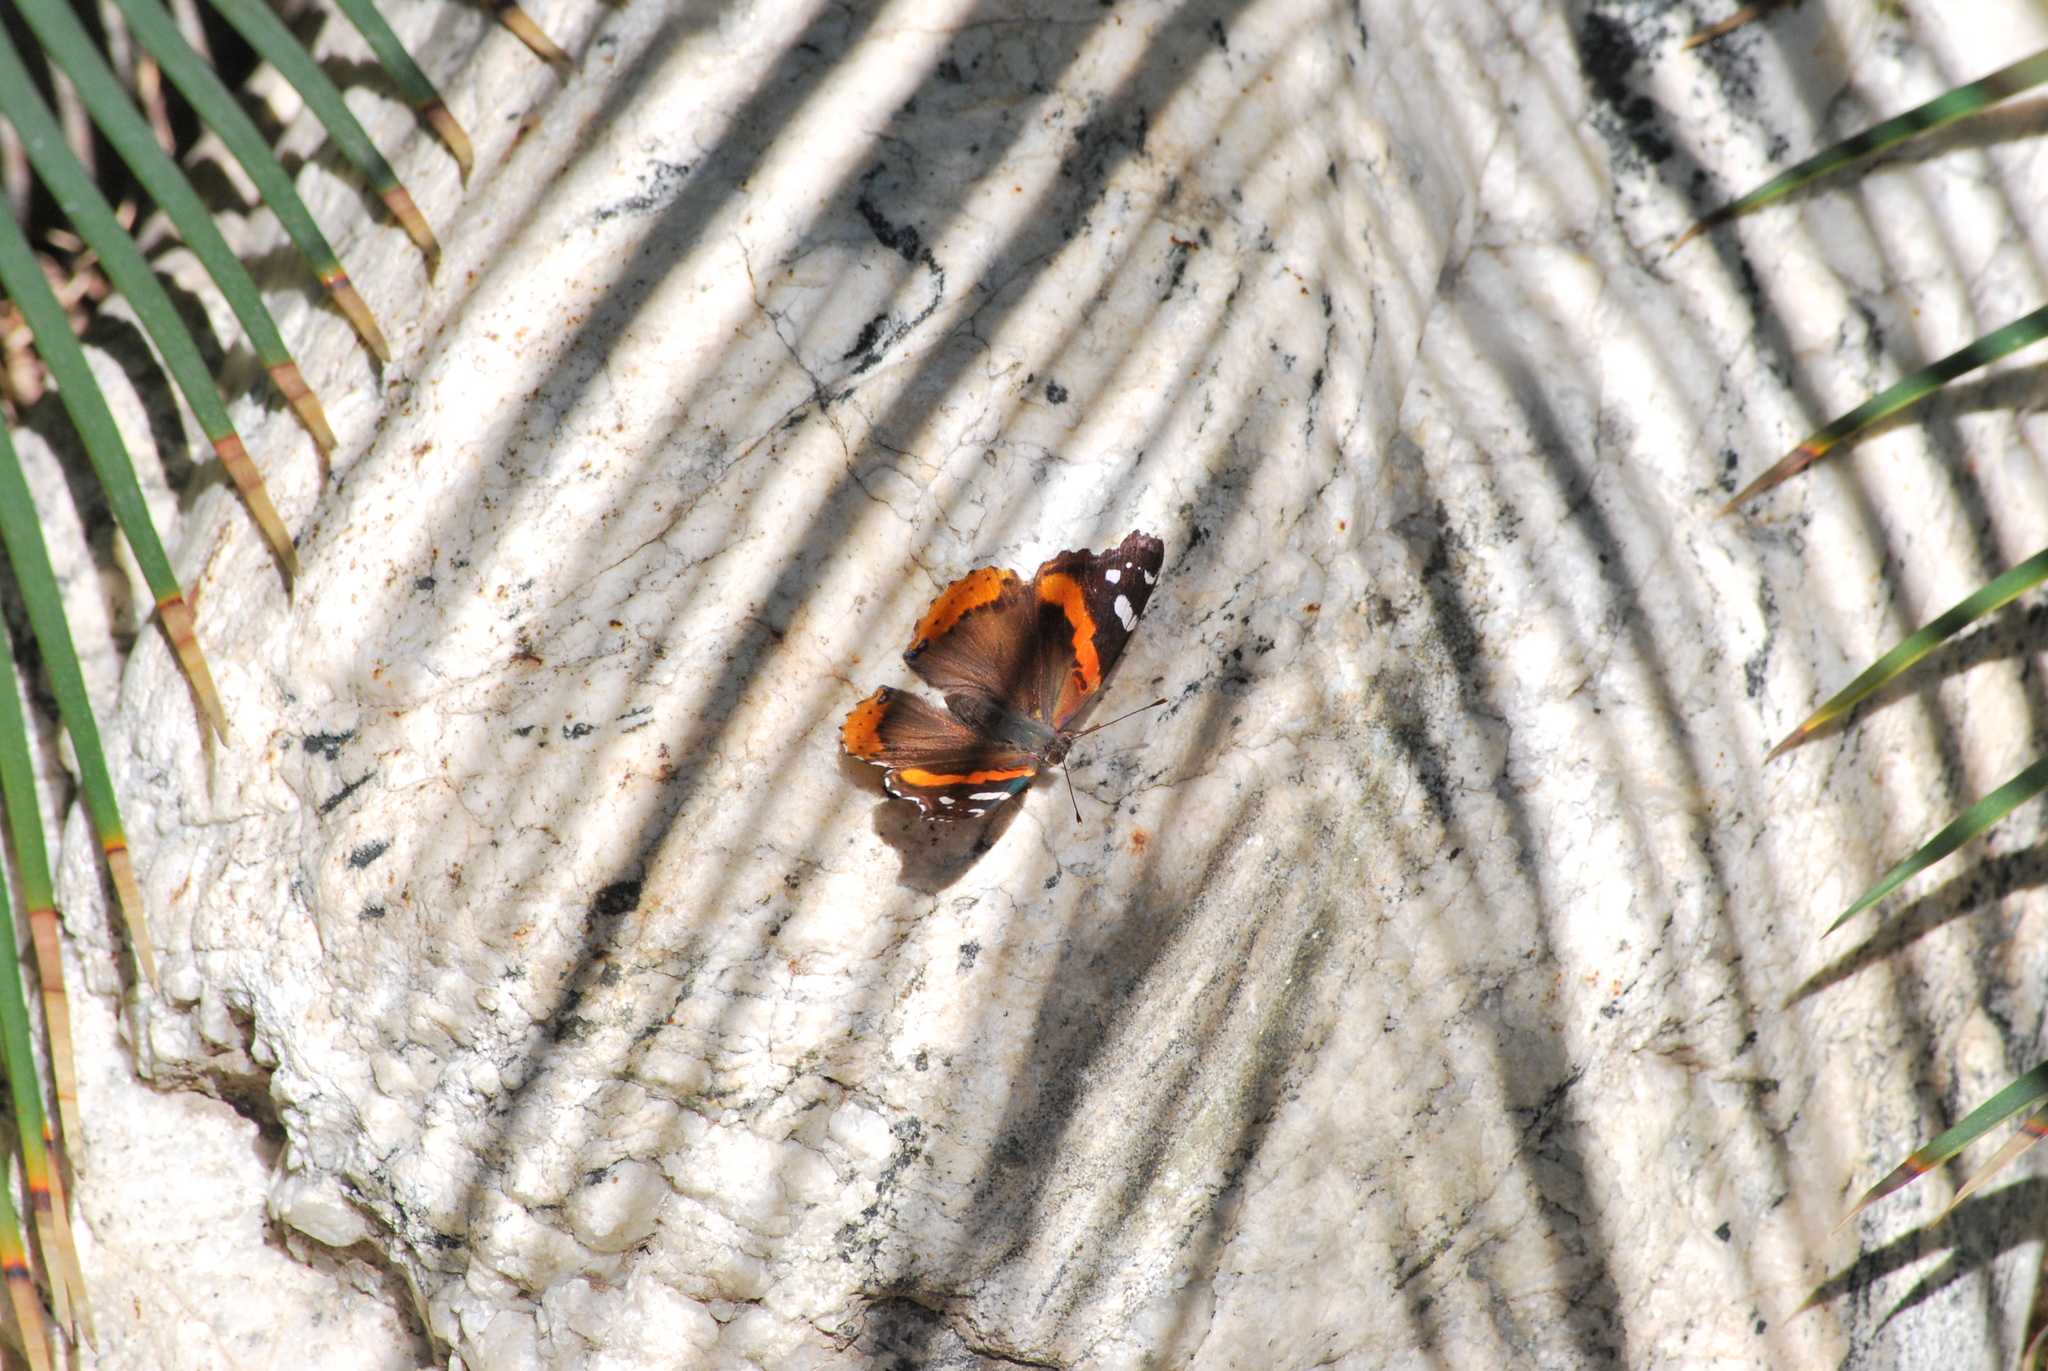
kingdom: Animalia
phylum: Arthropoda
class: Insecta
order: Lepidoptera
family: Nymphalidae
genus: Vanessa
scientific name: Vanessa atalanta
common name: Red admiral
